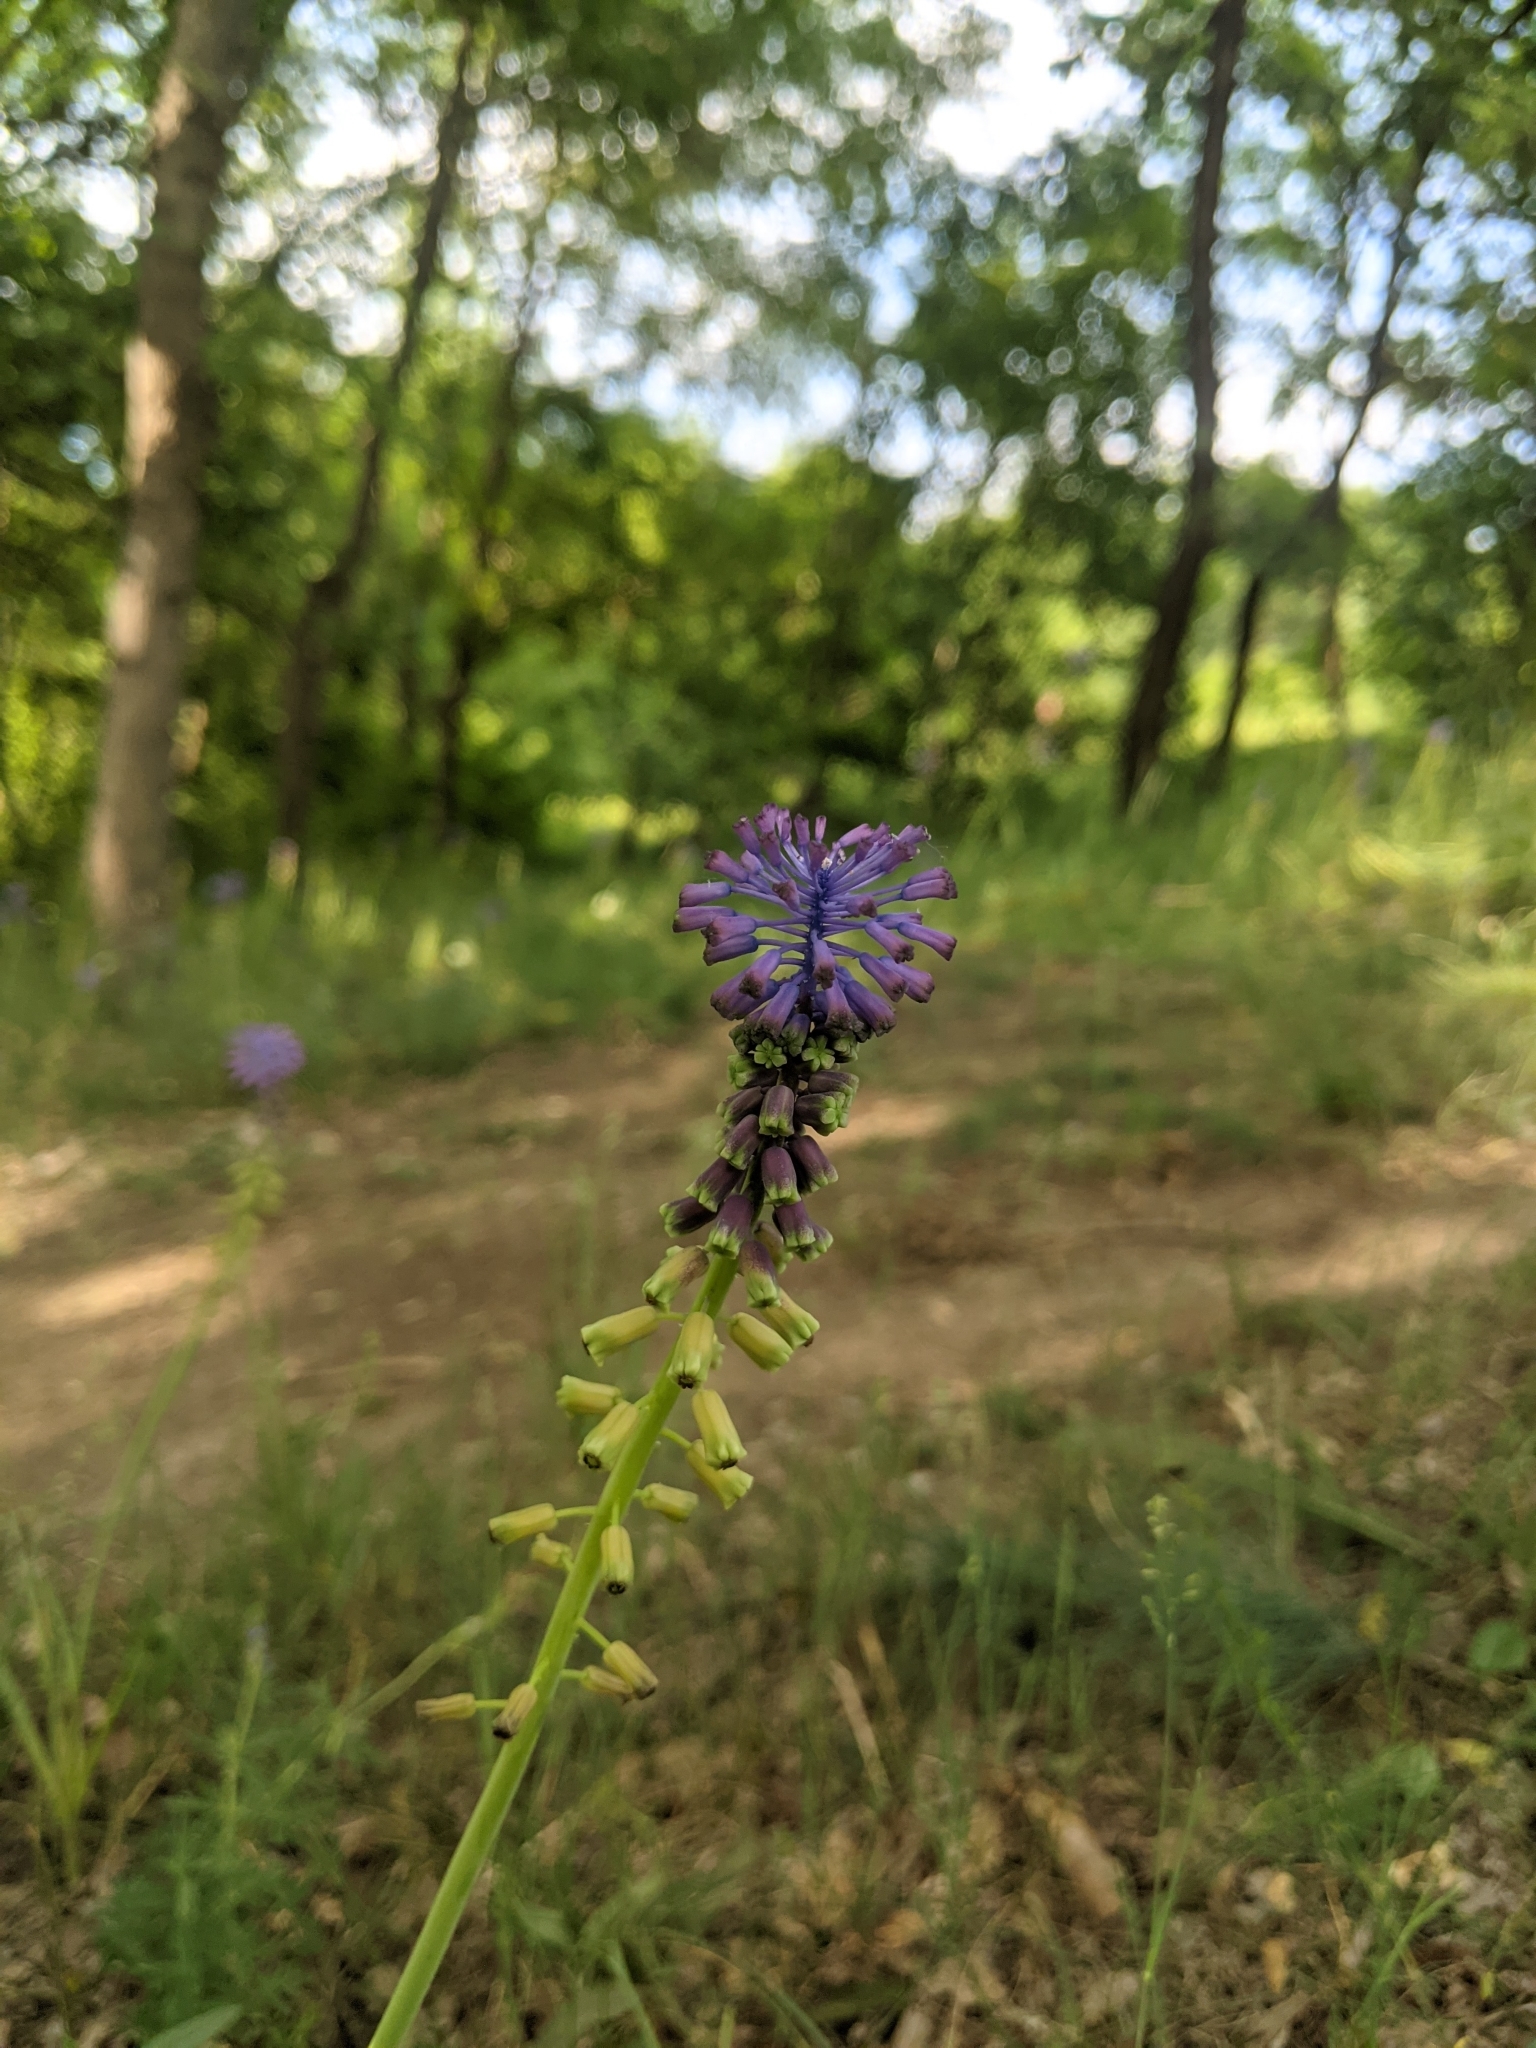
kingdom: Plantae
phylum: Tracheophyta
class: Liliopsida
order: Asparagales
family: Asparagaceae
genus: Muscari
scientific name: Muscari comosum
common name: Tassel hyacinth
